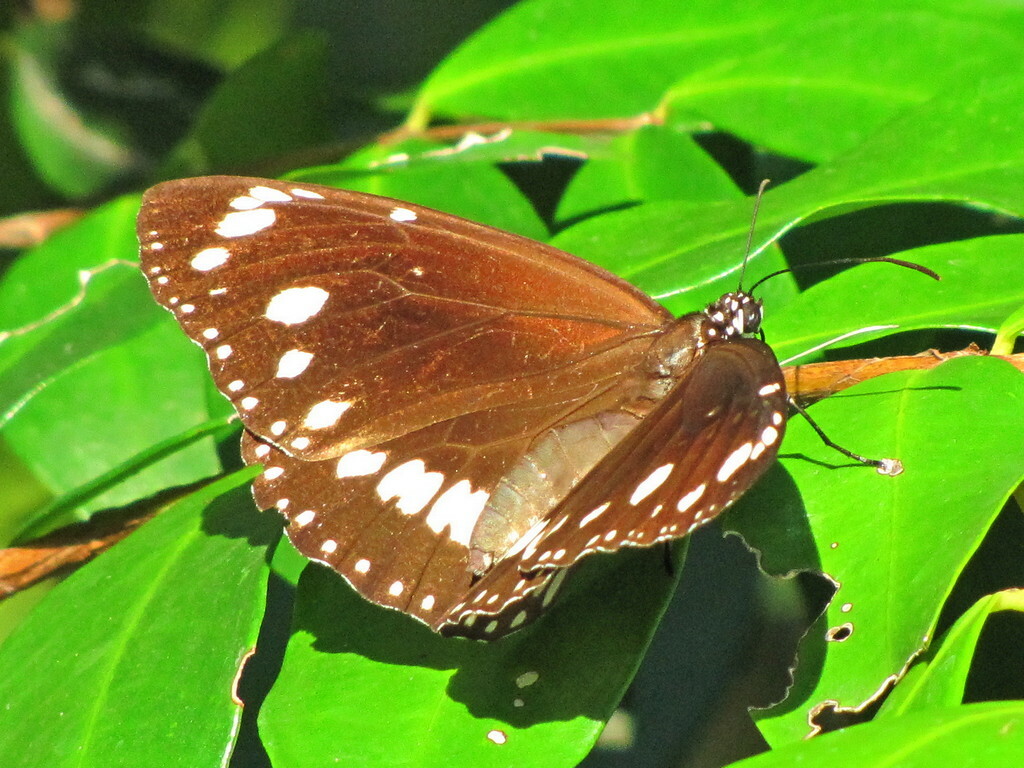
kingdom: Animalia
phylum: Arthropoda
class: Insecta
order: Lepidoptera
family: Nymphalidae
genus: Euploea
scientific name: Euploea core
